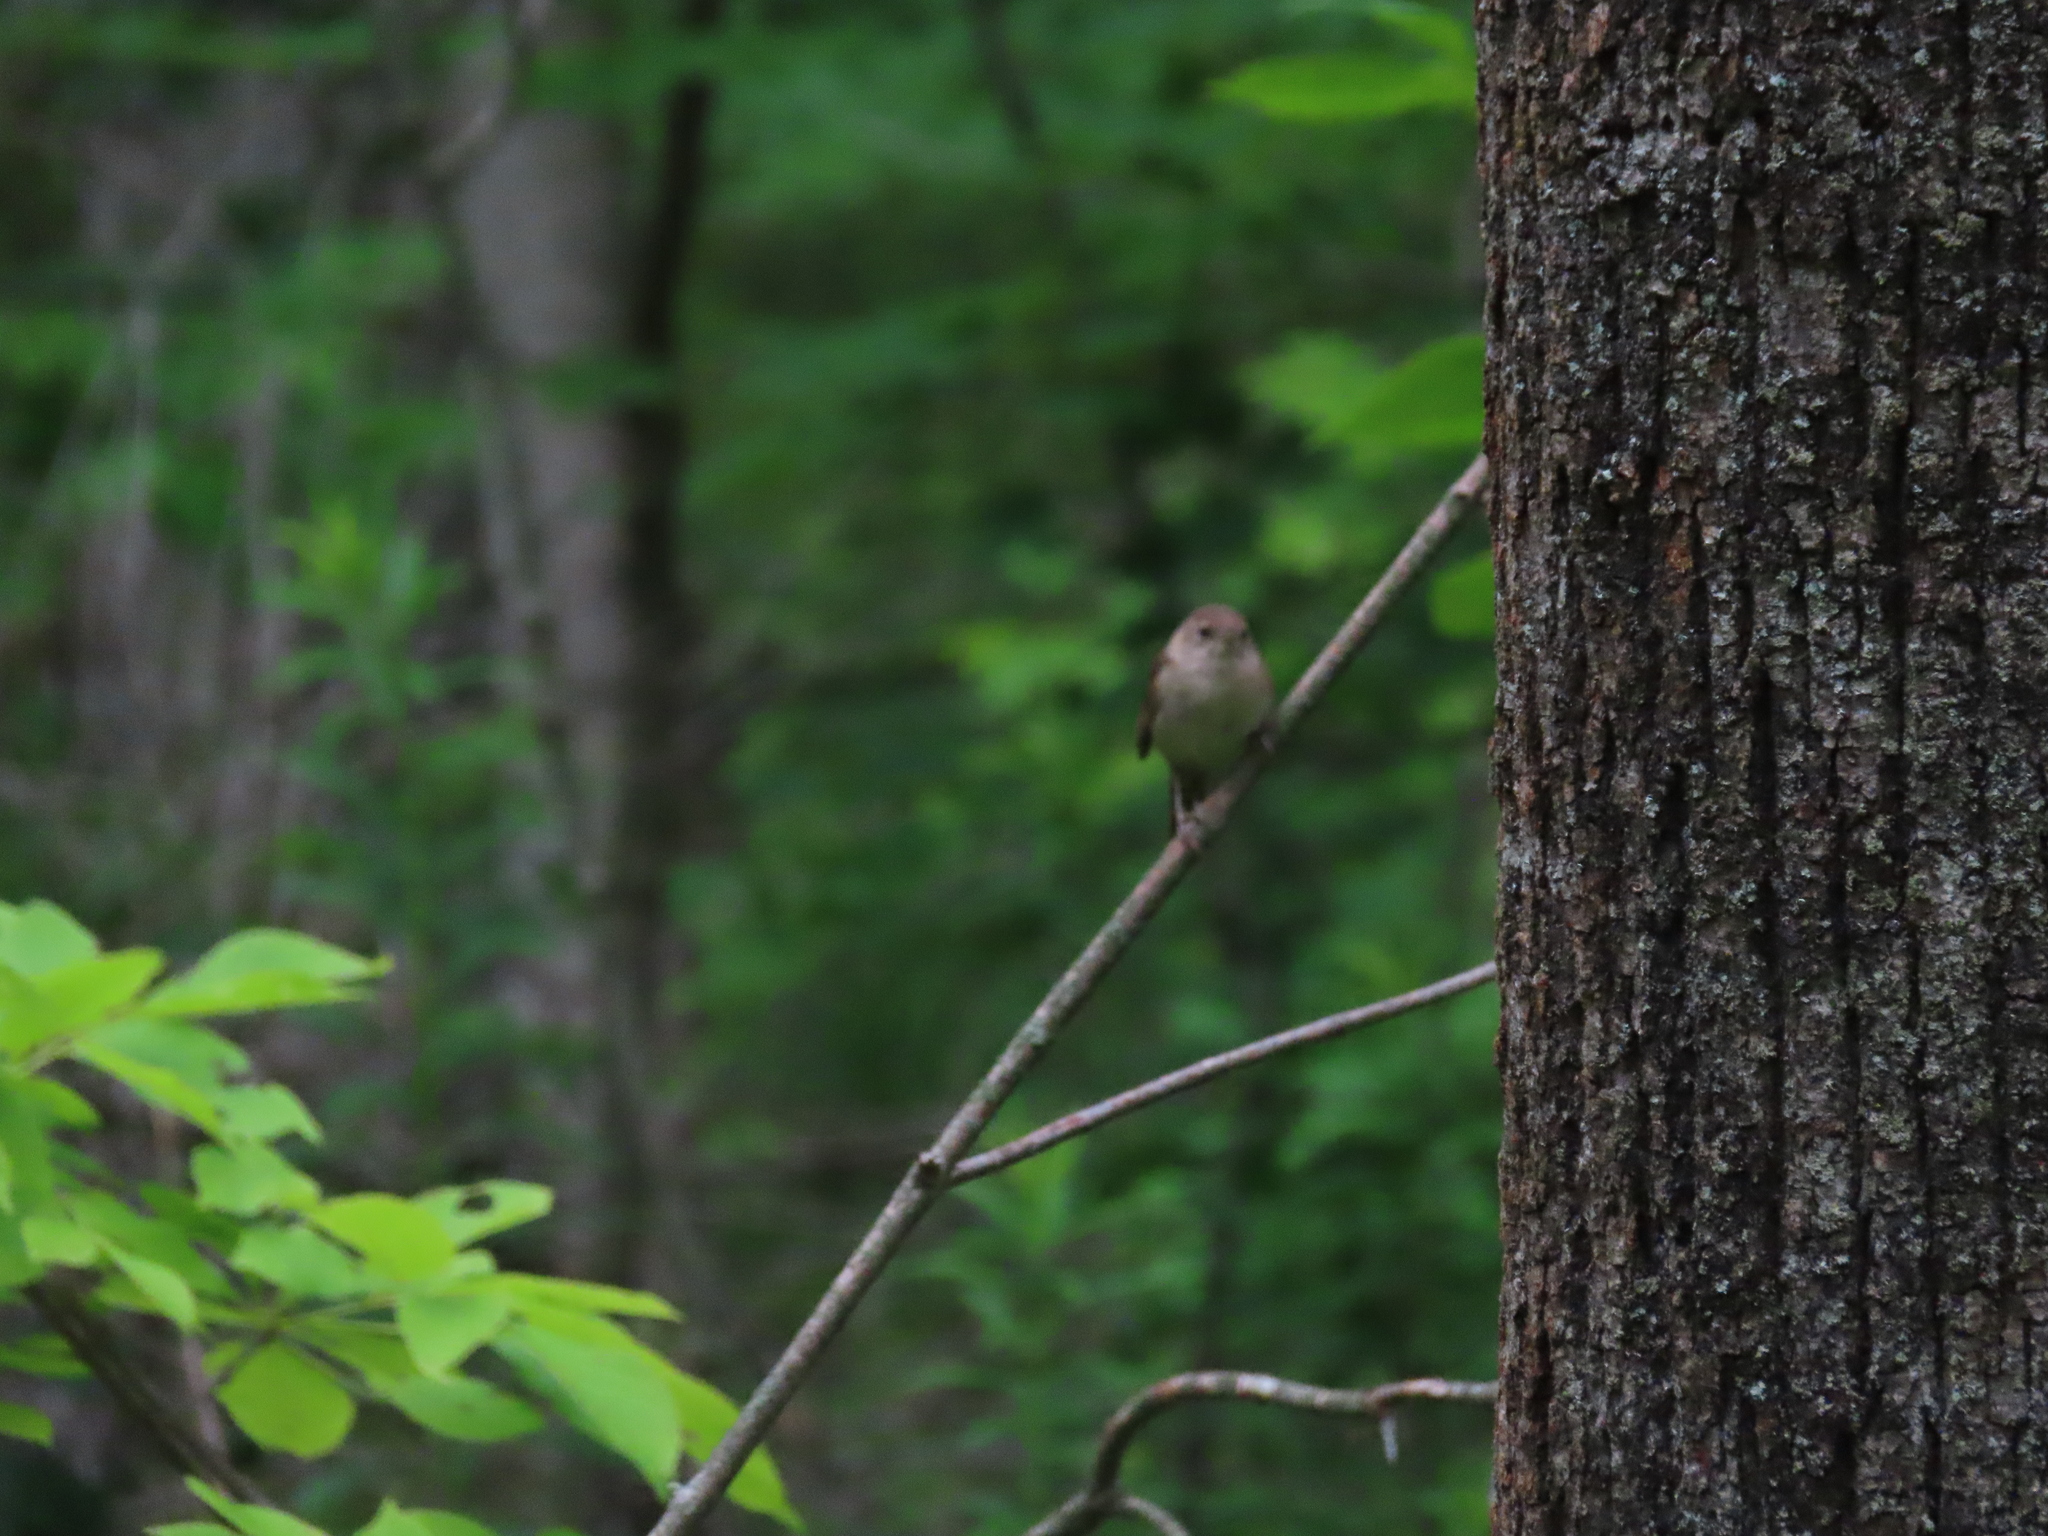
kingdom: Animalia
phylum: Chordata
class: Aves
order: Passeriformes
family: Troglodytidae
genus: Troglodytes
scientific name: Troglodytes aedon
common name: House wren
